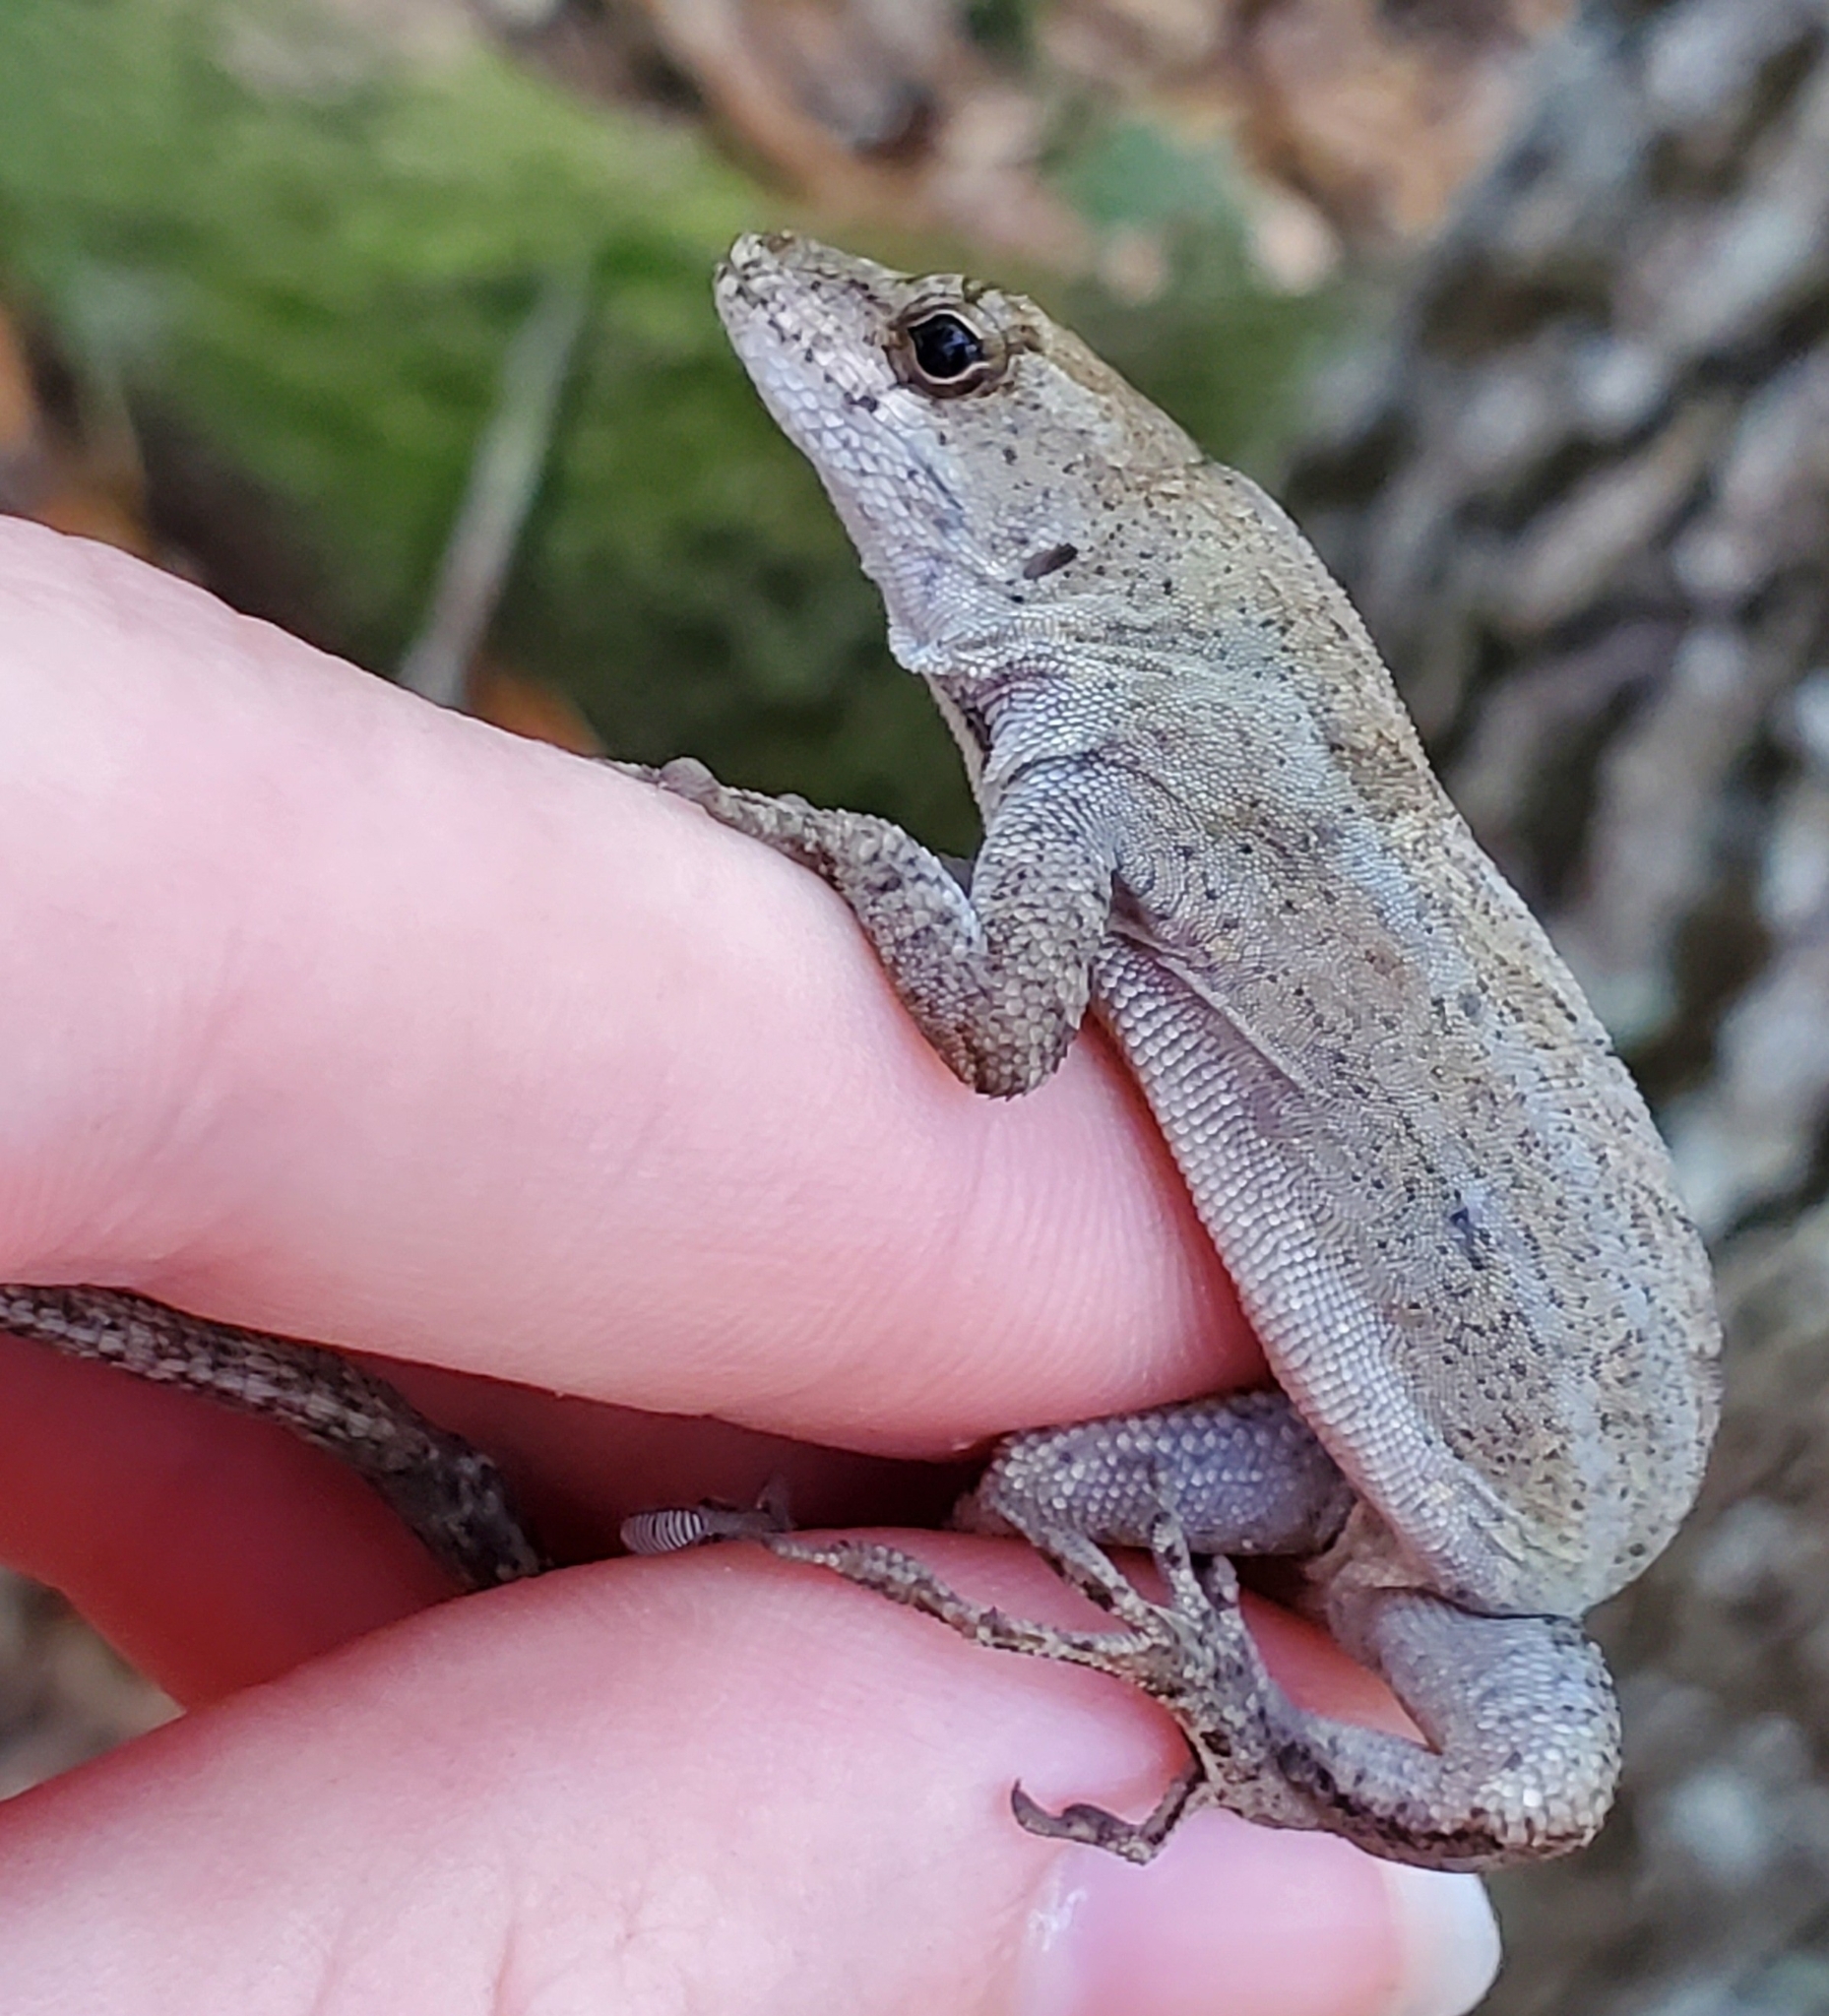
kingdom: Animalia
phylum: Chordata
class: Squamata
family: Dactyloidae
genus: Anolis
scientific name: Anolis sagrei
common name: Brown anole
